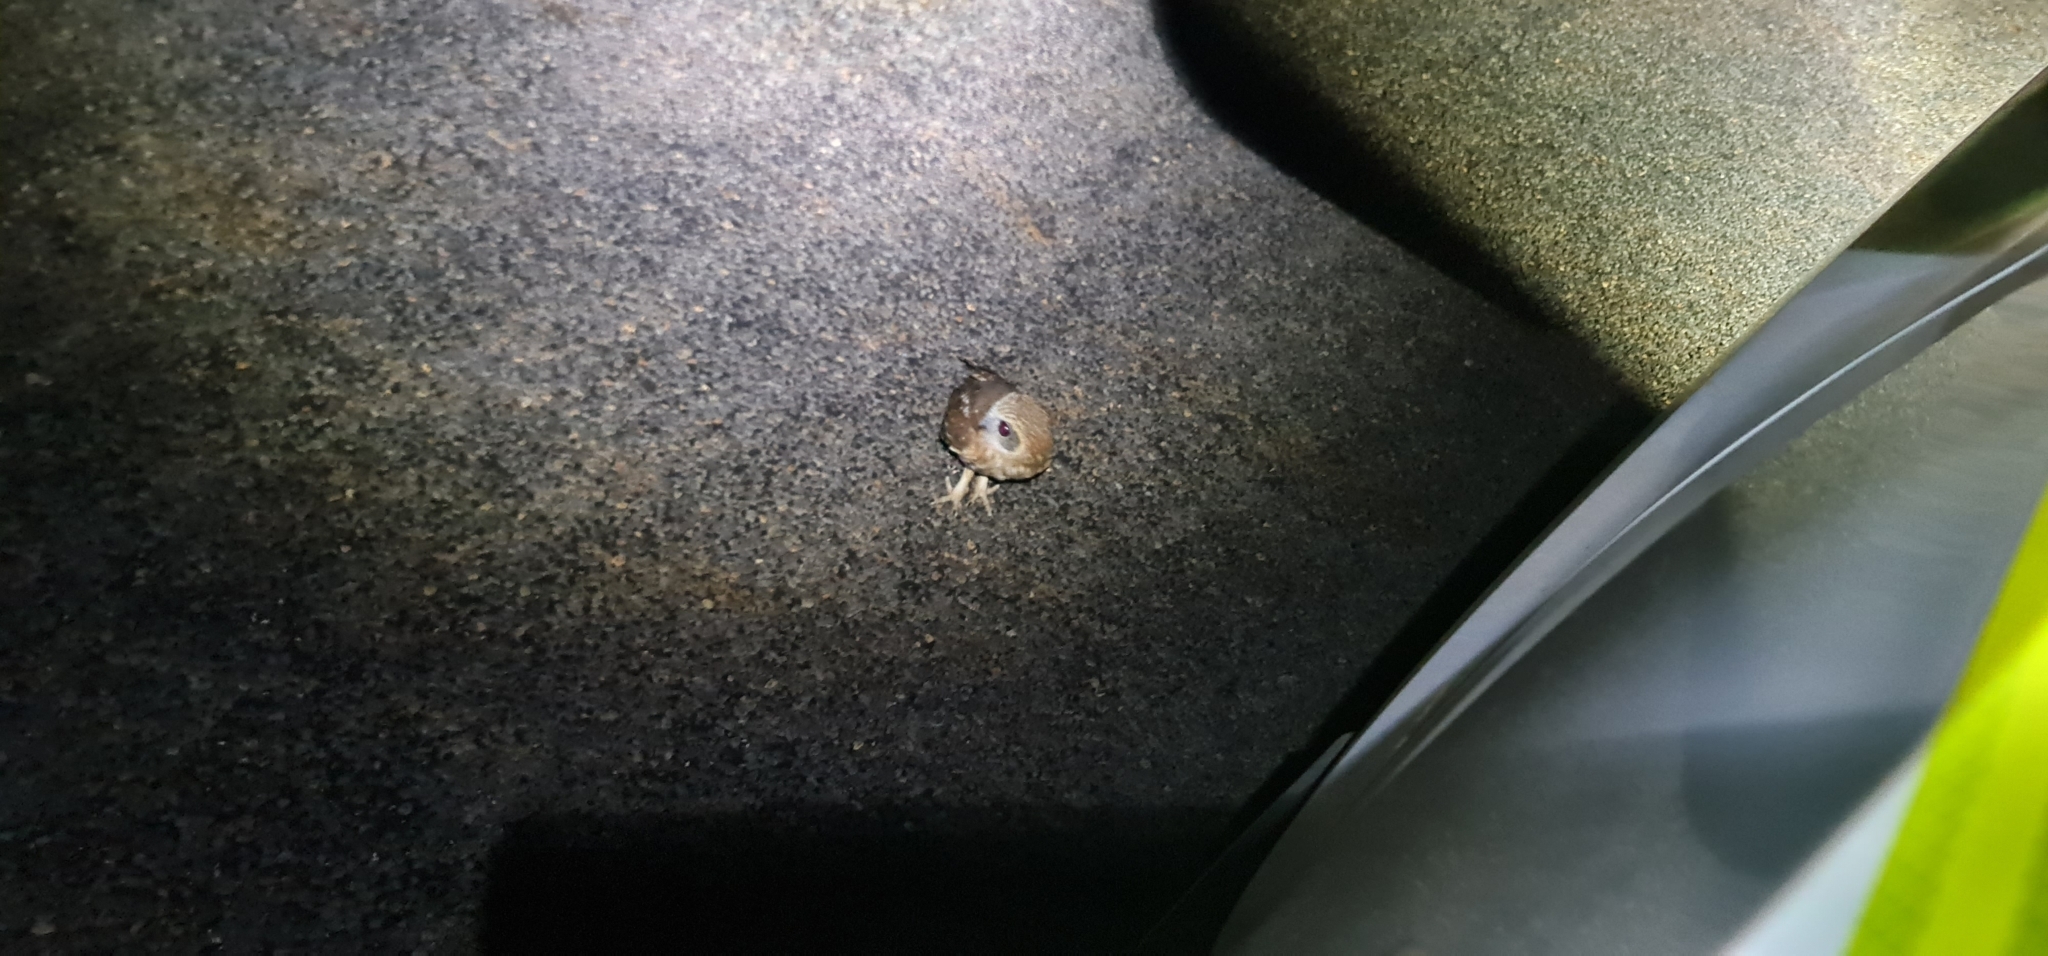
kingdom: Animalia
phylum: Chordata
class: Aves
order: Strigiformes
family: Strigidae
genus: Ninox
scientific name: Ninox boobook
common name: Southern boobook
